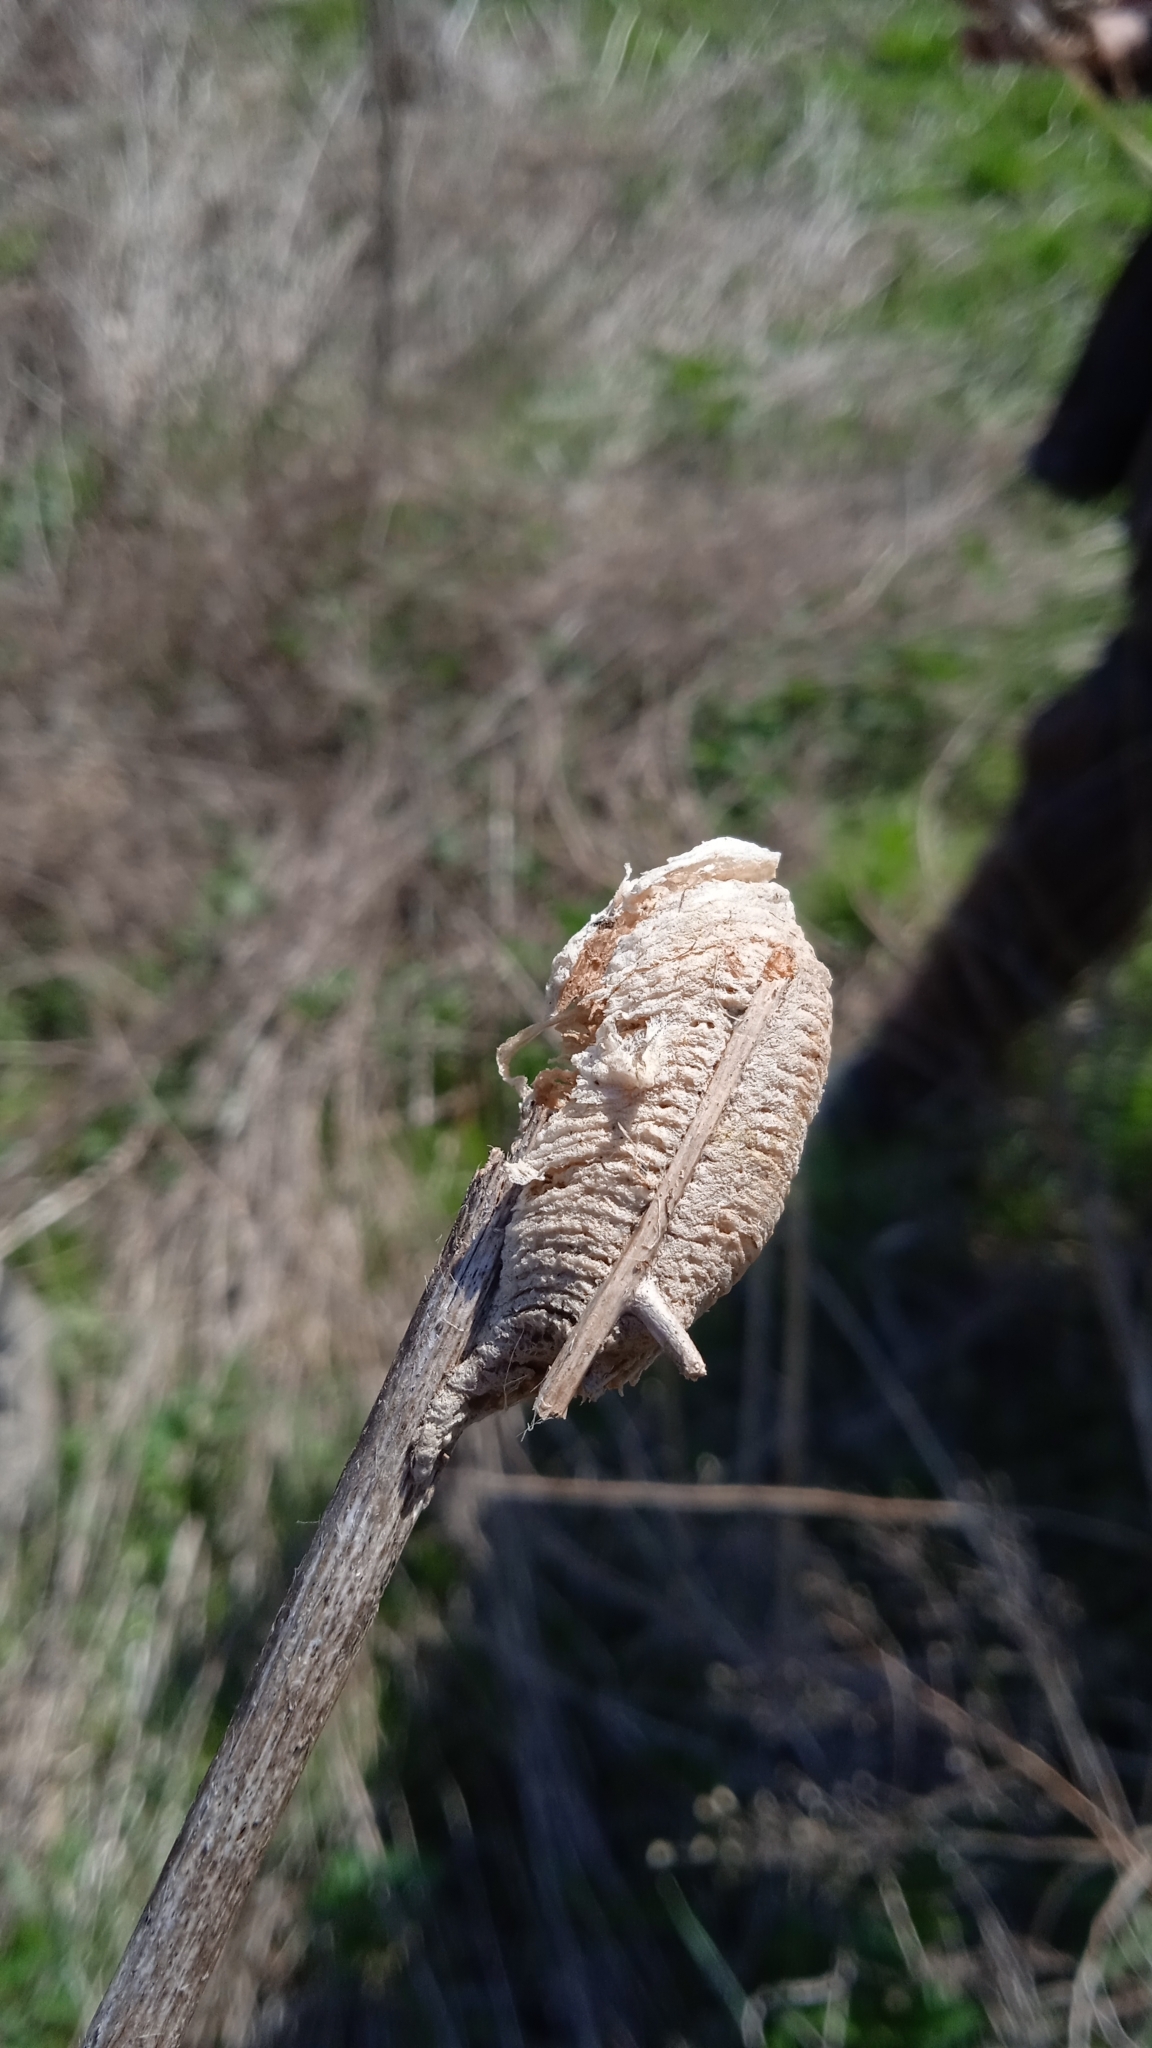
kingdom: Animalia
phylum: Arthropoda
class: Insecta
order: Mantodea
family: Mantidae
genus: Mantis
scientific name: Mantis religiosa
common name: Praying mantis
